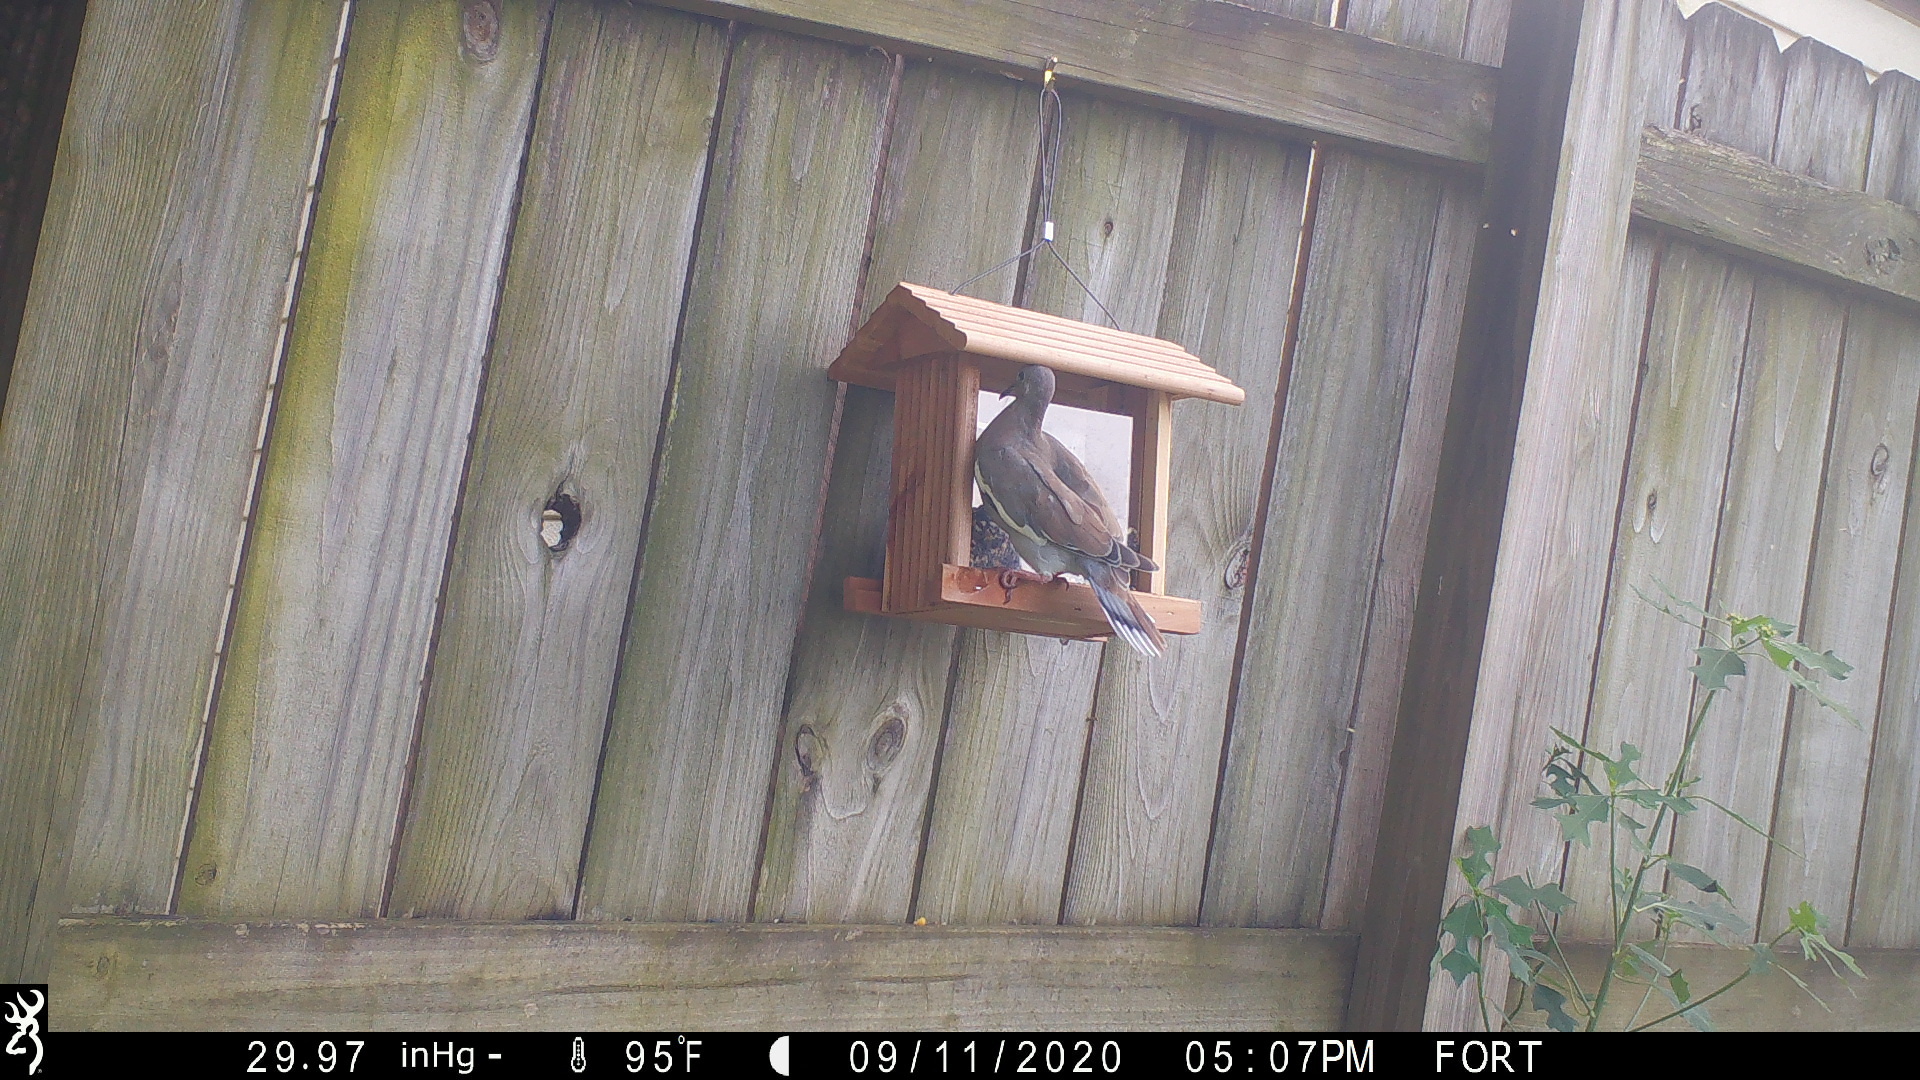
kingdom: Animalia
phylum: Chordata
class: Aves
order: Columbiformes
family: Columbidae
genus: Zenaida
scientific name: Zenaida asiatica
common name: White-winged dove
